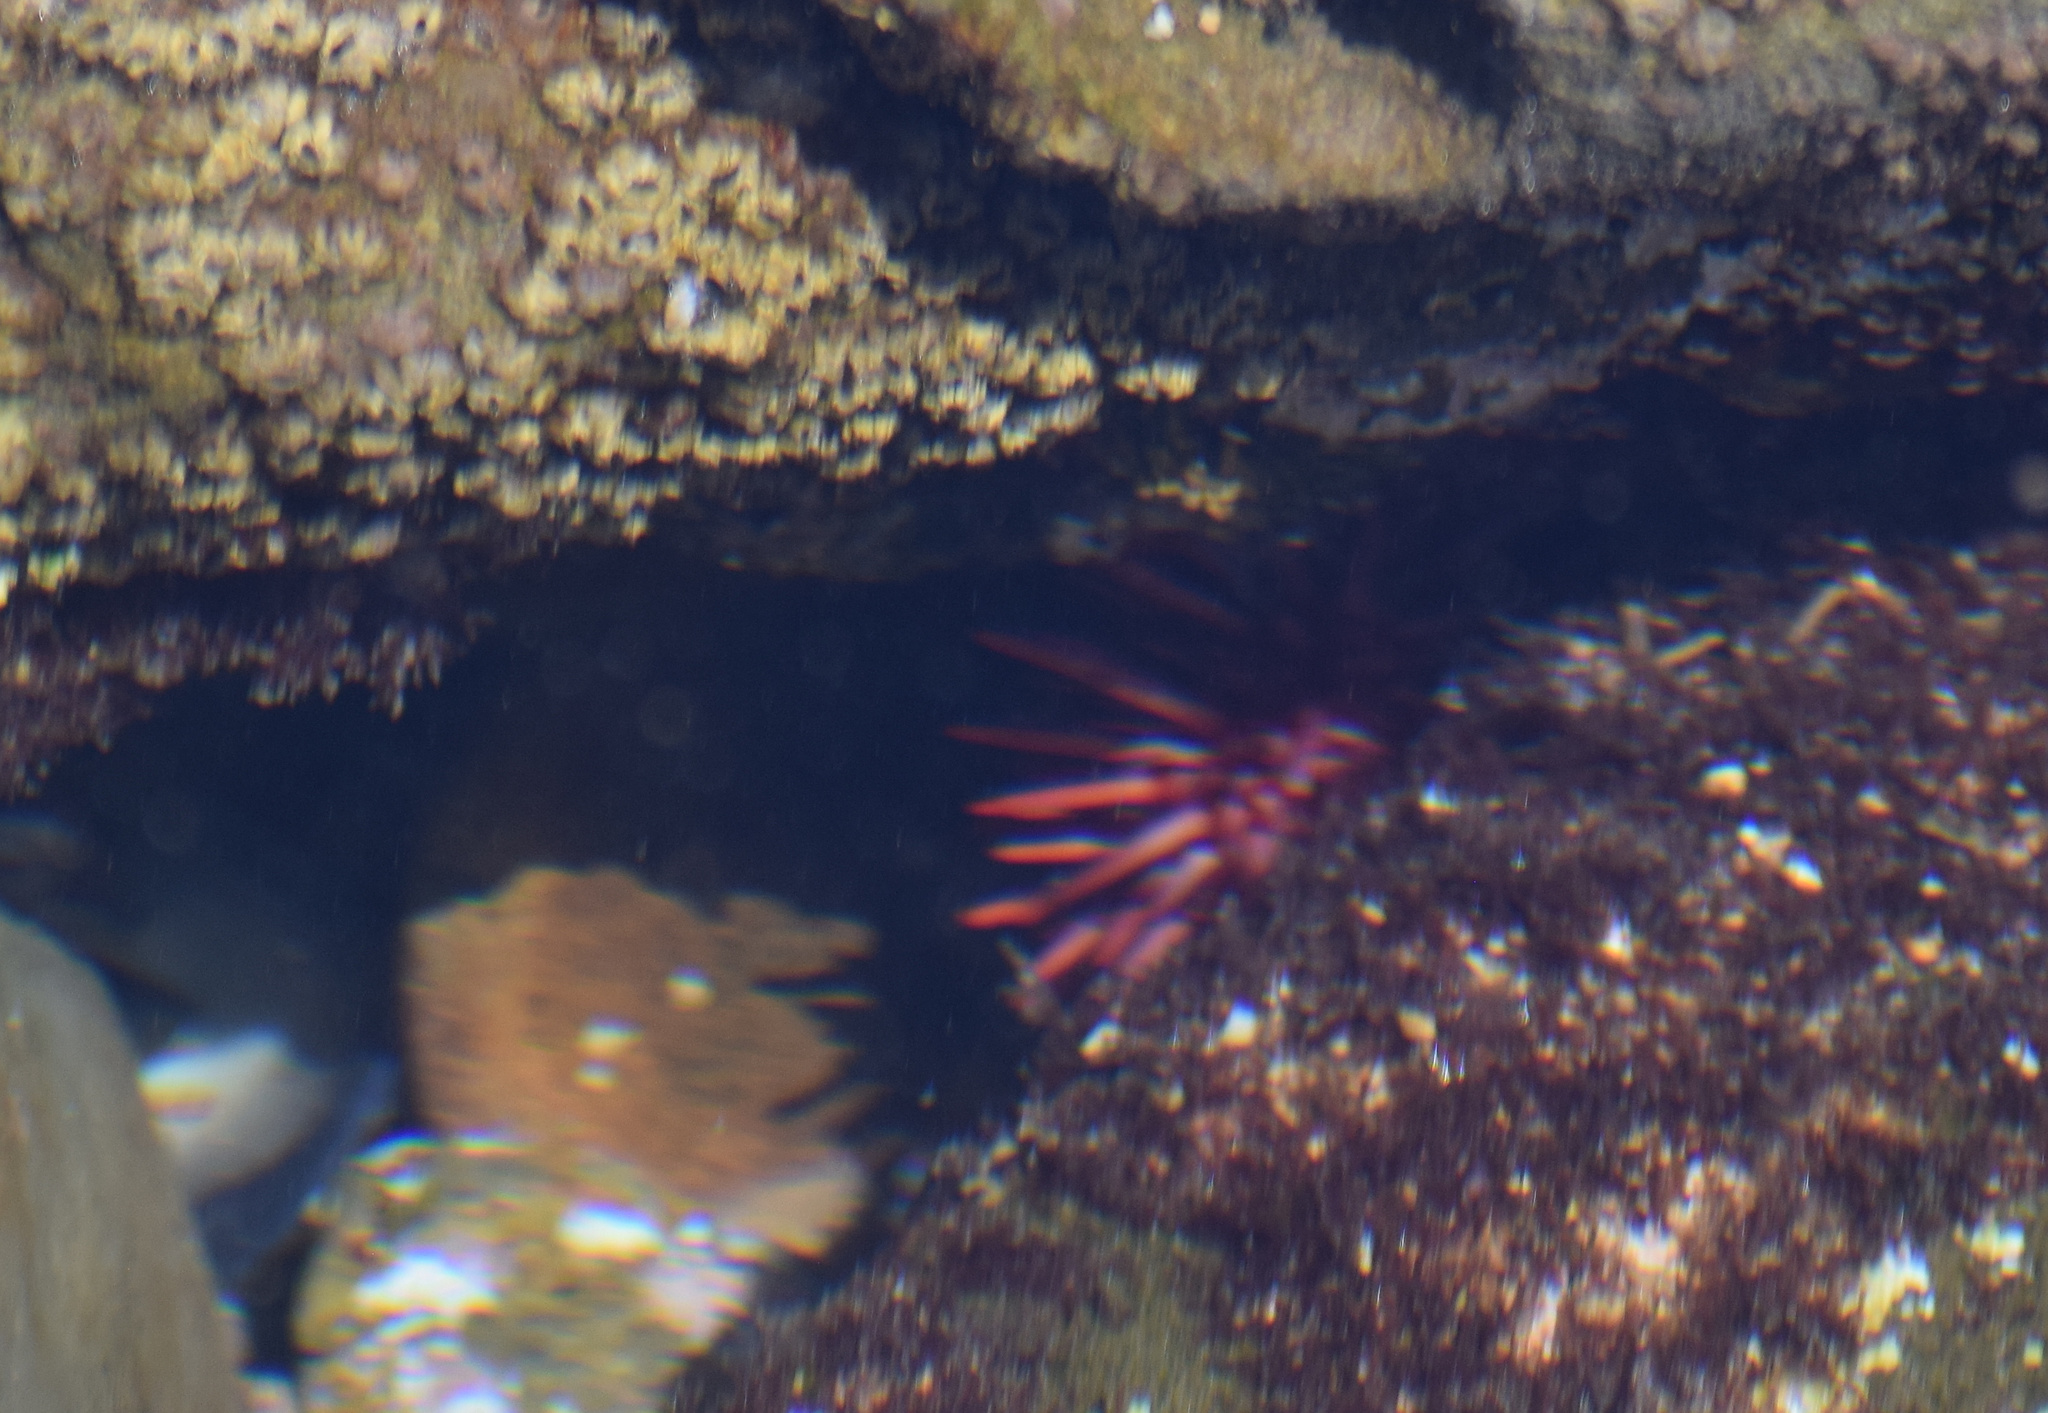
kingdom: Animalia
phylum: Echinodermata
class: Echinoidea
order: Camarodonta
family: Strongylocentrotidae
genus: Mesocentrotus
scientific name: Mesocentrotus franciscanus
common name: Red sea urchin
